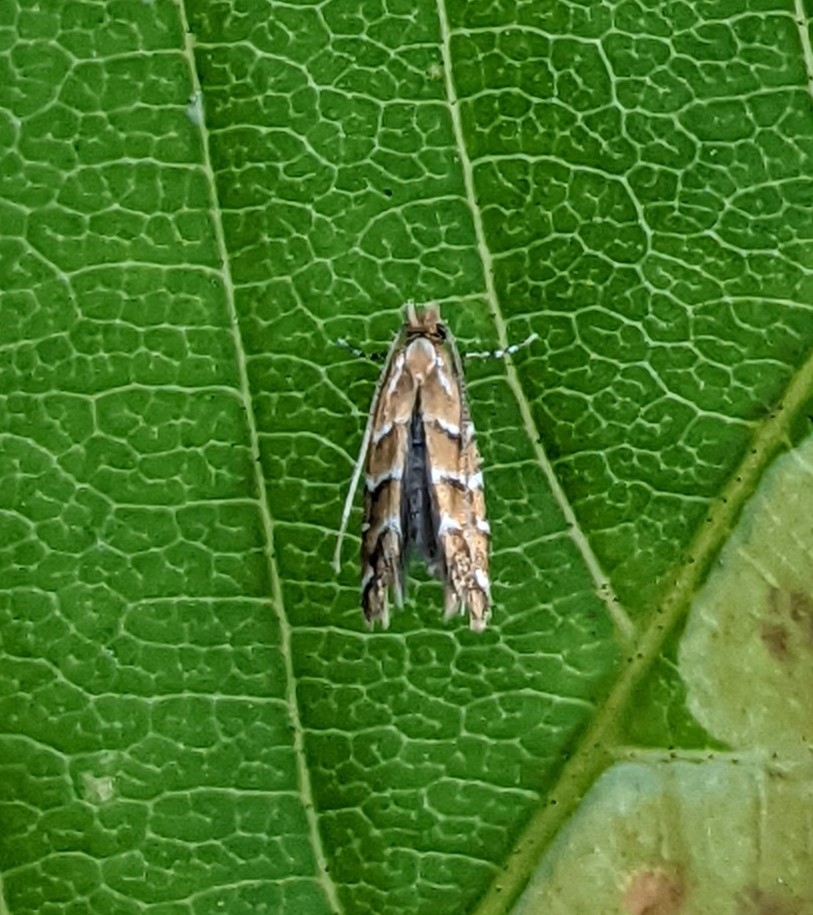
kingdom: Animalia
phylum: Arthropoda
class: Insecta
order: Lepidoptera
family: Gracillariidae
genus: Cameraria
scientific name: Cameraria ohridella
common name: Horse-chestnut leaf-miner
